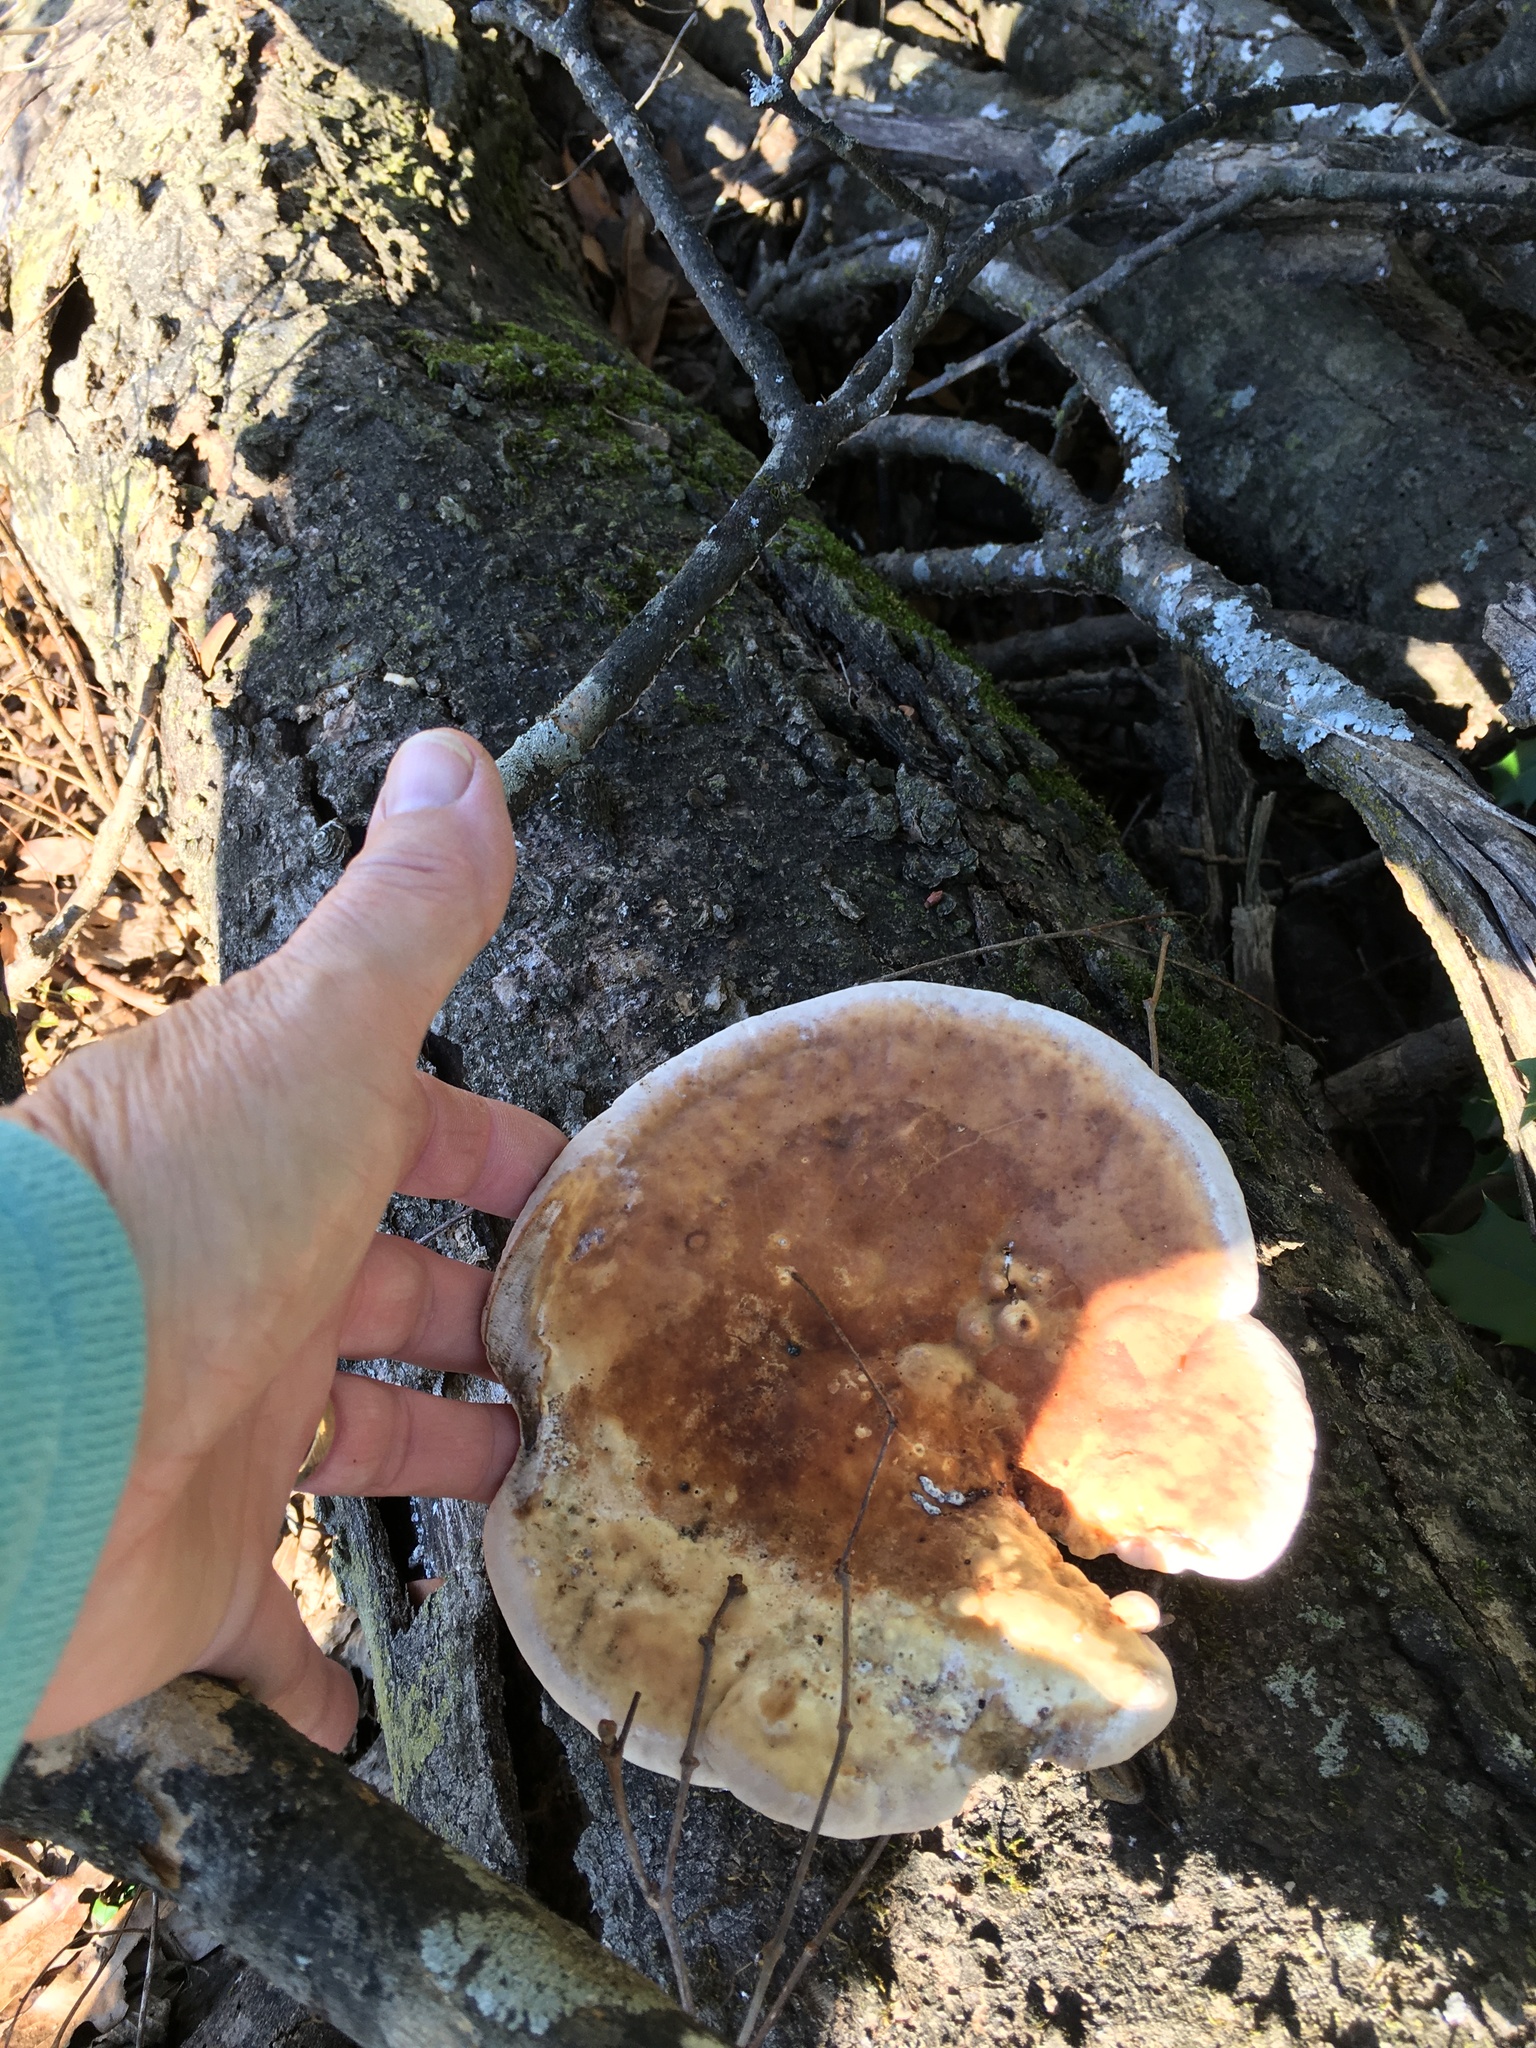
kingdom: Fungi
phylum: Basidiomycota
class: Agaricomycetes
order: Polyporales
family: Polyporaceae
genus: Trametes
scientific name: Trametes ochracea
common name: Ochre bracket
